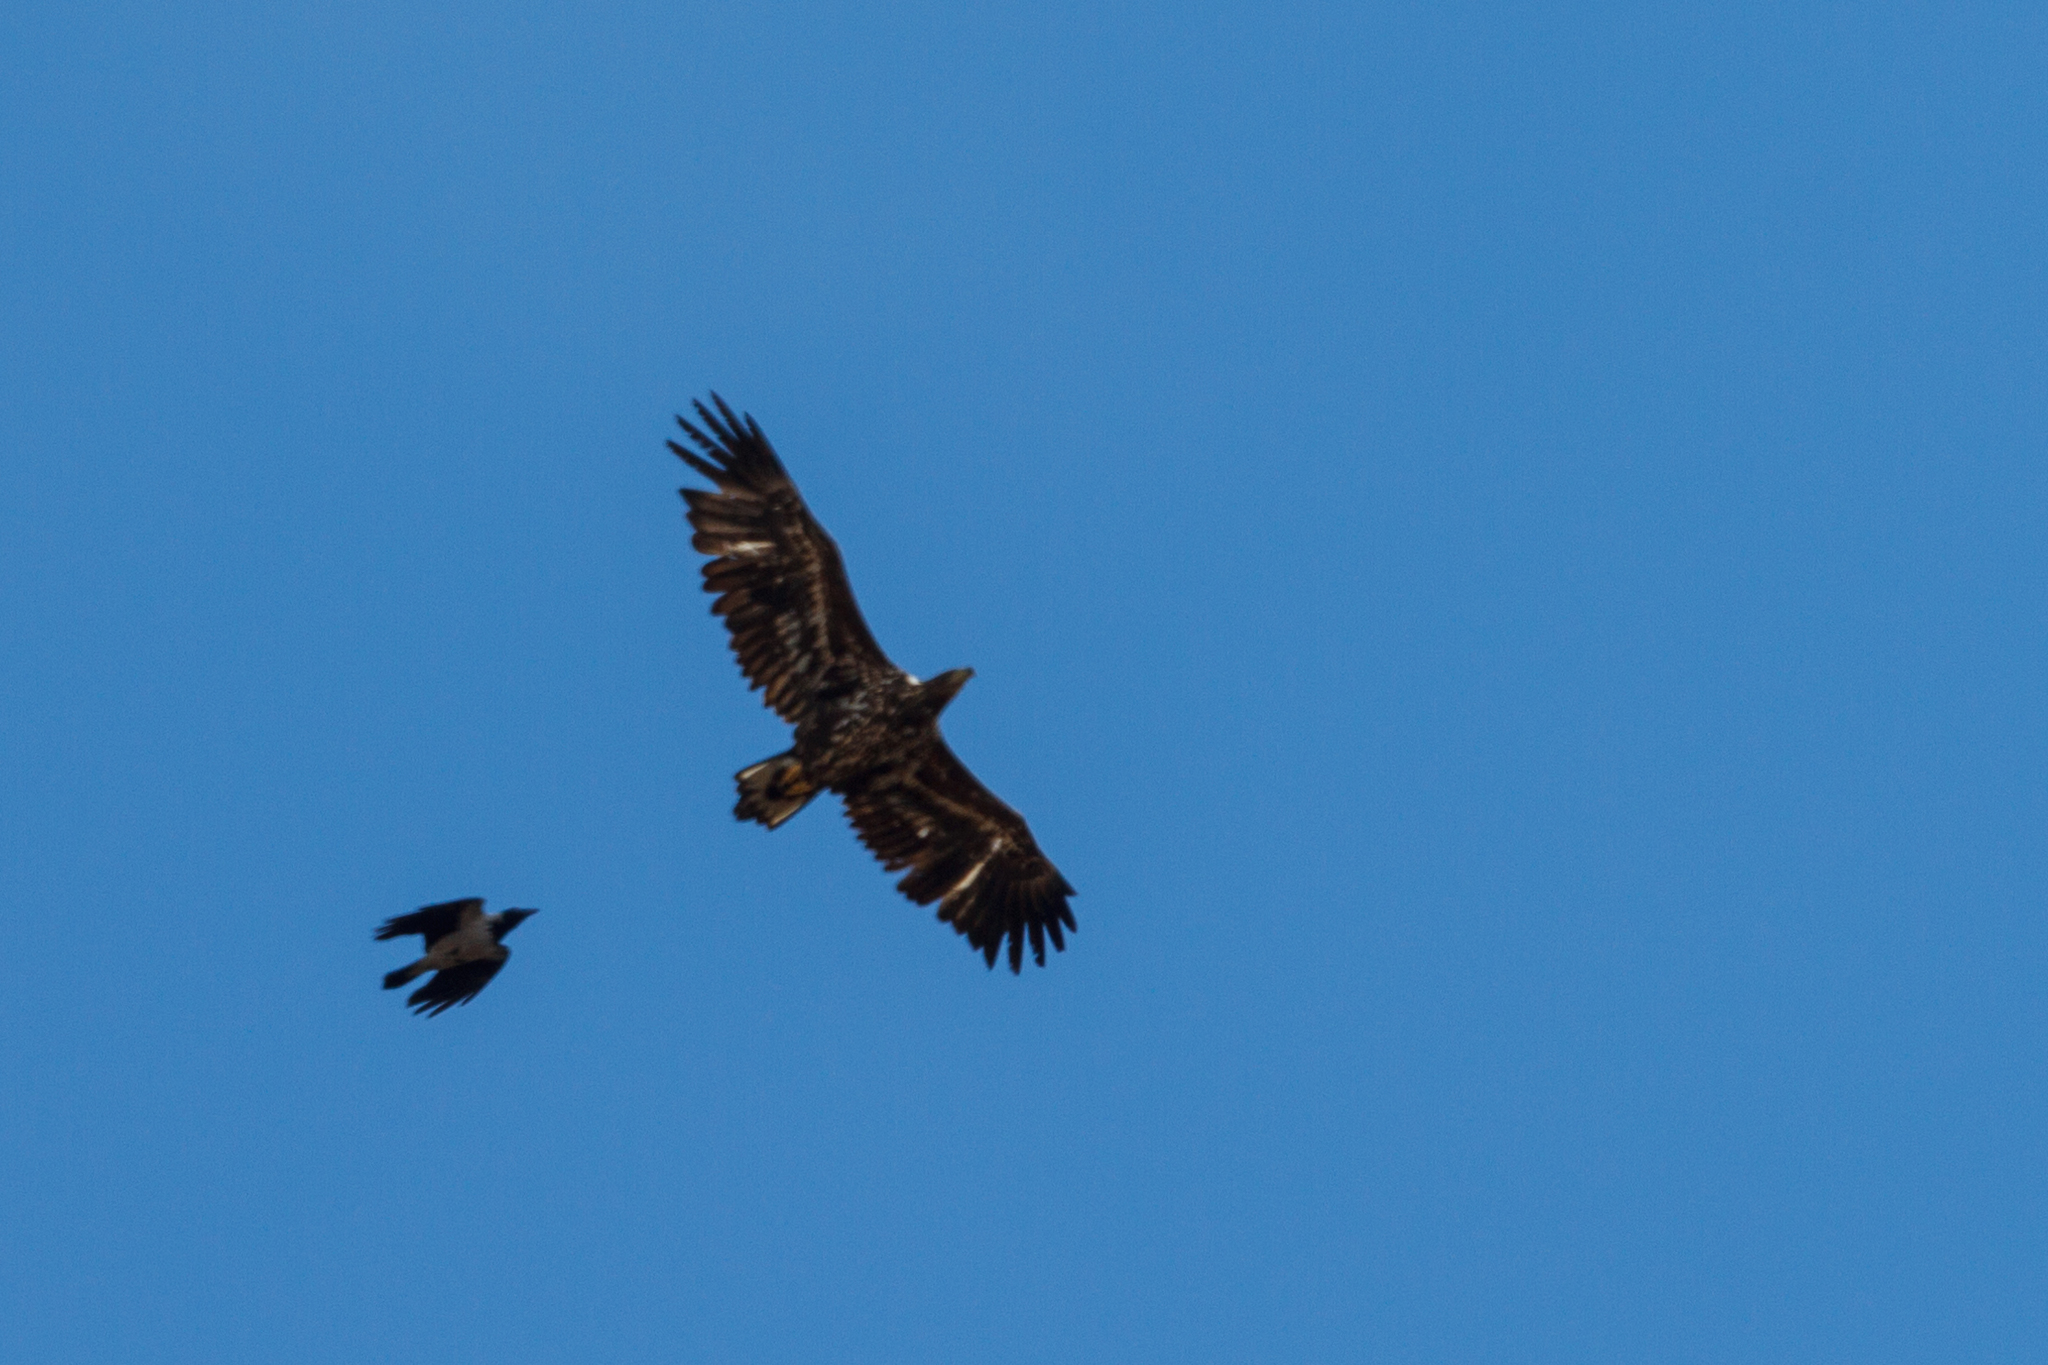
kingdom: Animalia
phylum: Chordata
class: Aves
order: Accipitriformes
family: Accipitridae
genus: Haliaeetus
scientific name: Haliaeetus albicilla
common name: White-tailed eagle
